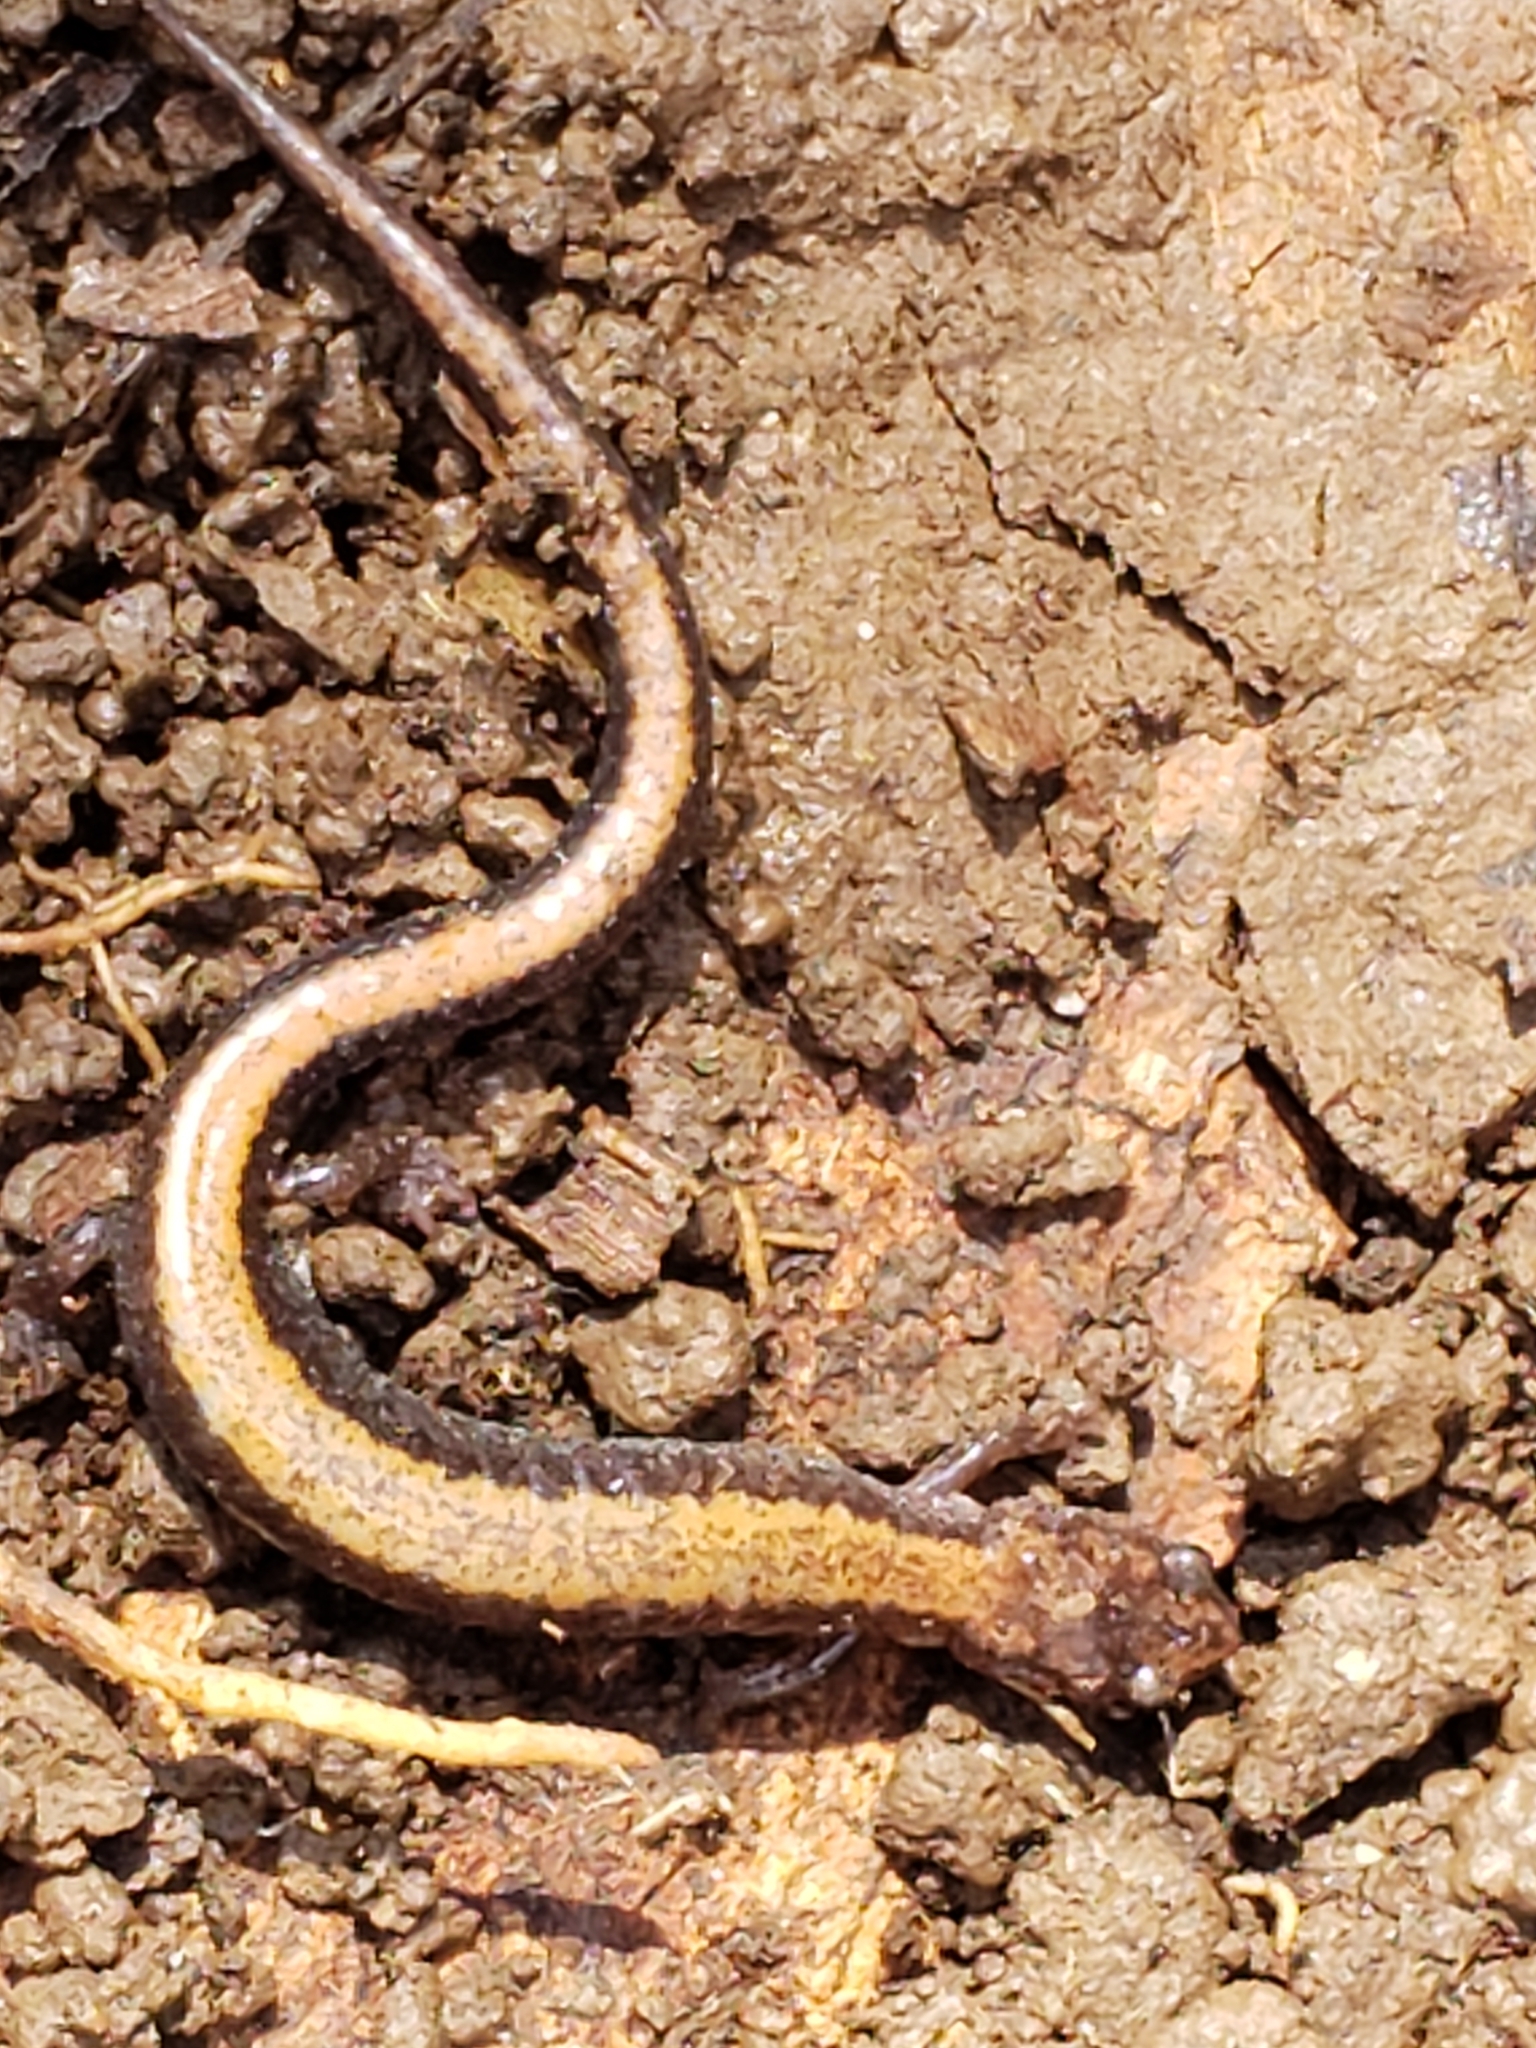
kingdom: Animalia
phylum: Chordata
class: Amphibia
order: Caudata
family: Plethodontidae
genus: Plethodon
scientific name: Plethodon cinereus
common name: Redback salamander
